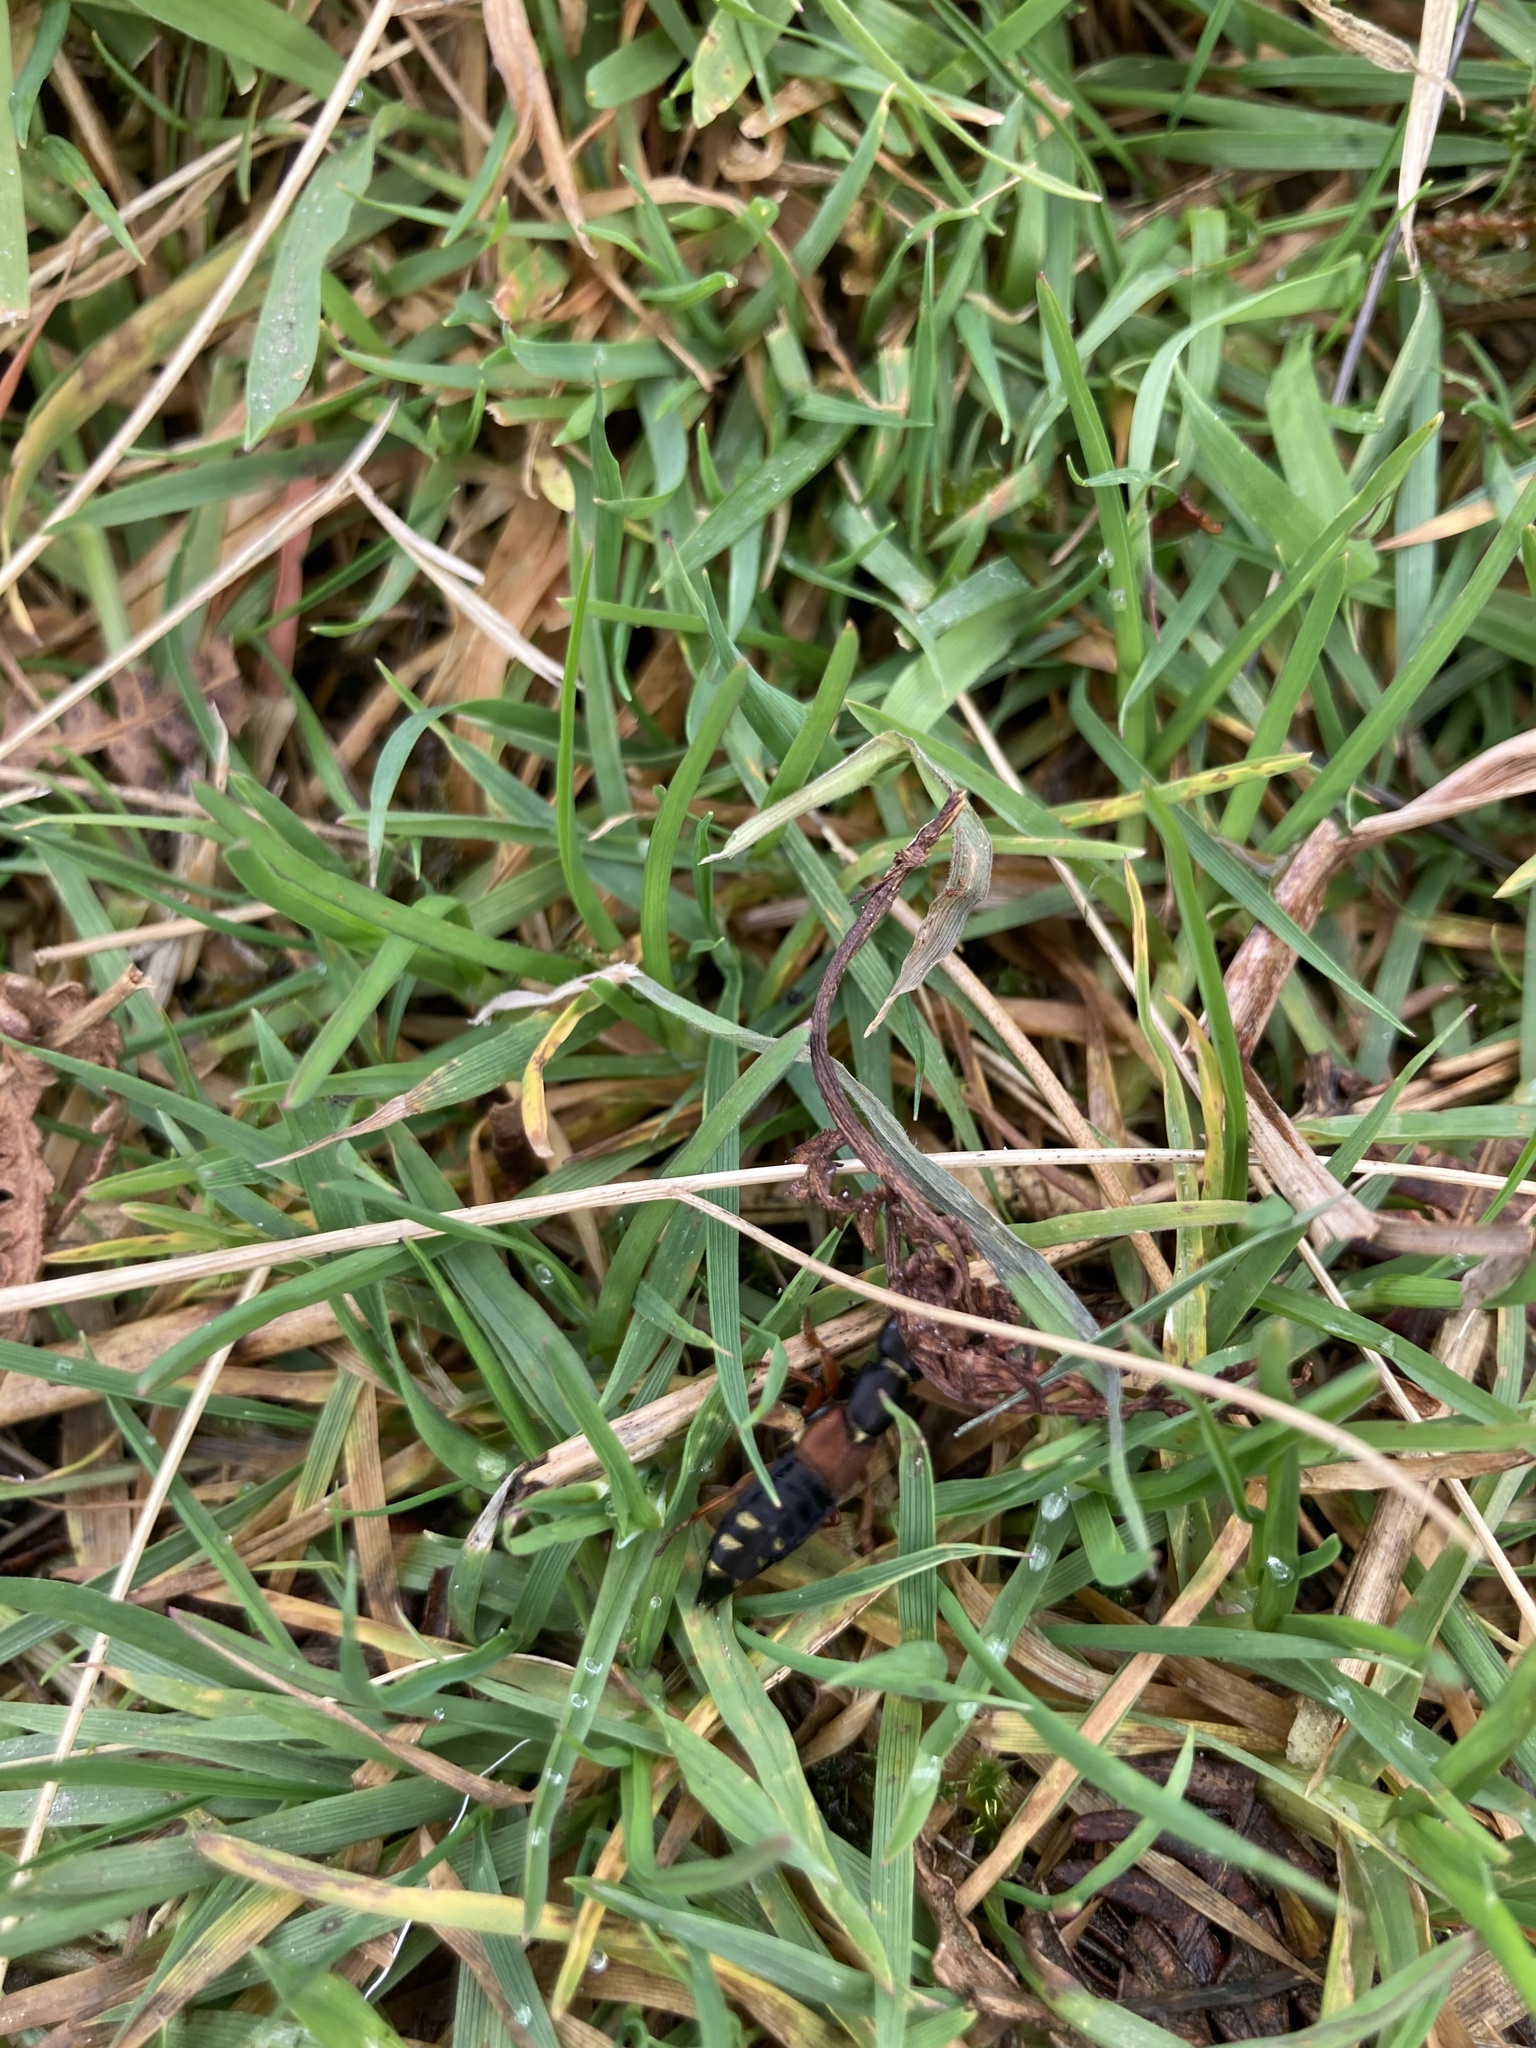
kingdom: Animalia
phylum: Arthropoda
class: Insecta
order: Coleoptera
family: Staphylinidae
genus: Staphylinus
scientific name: Staphylinus erythropterus
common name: Staph beetle
